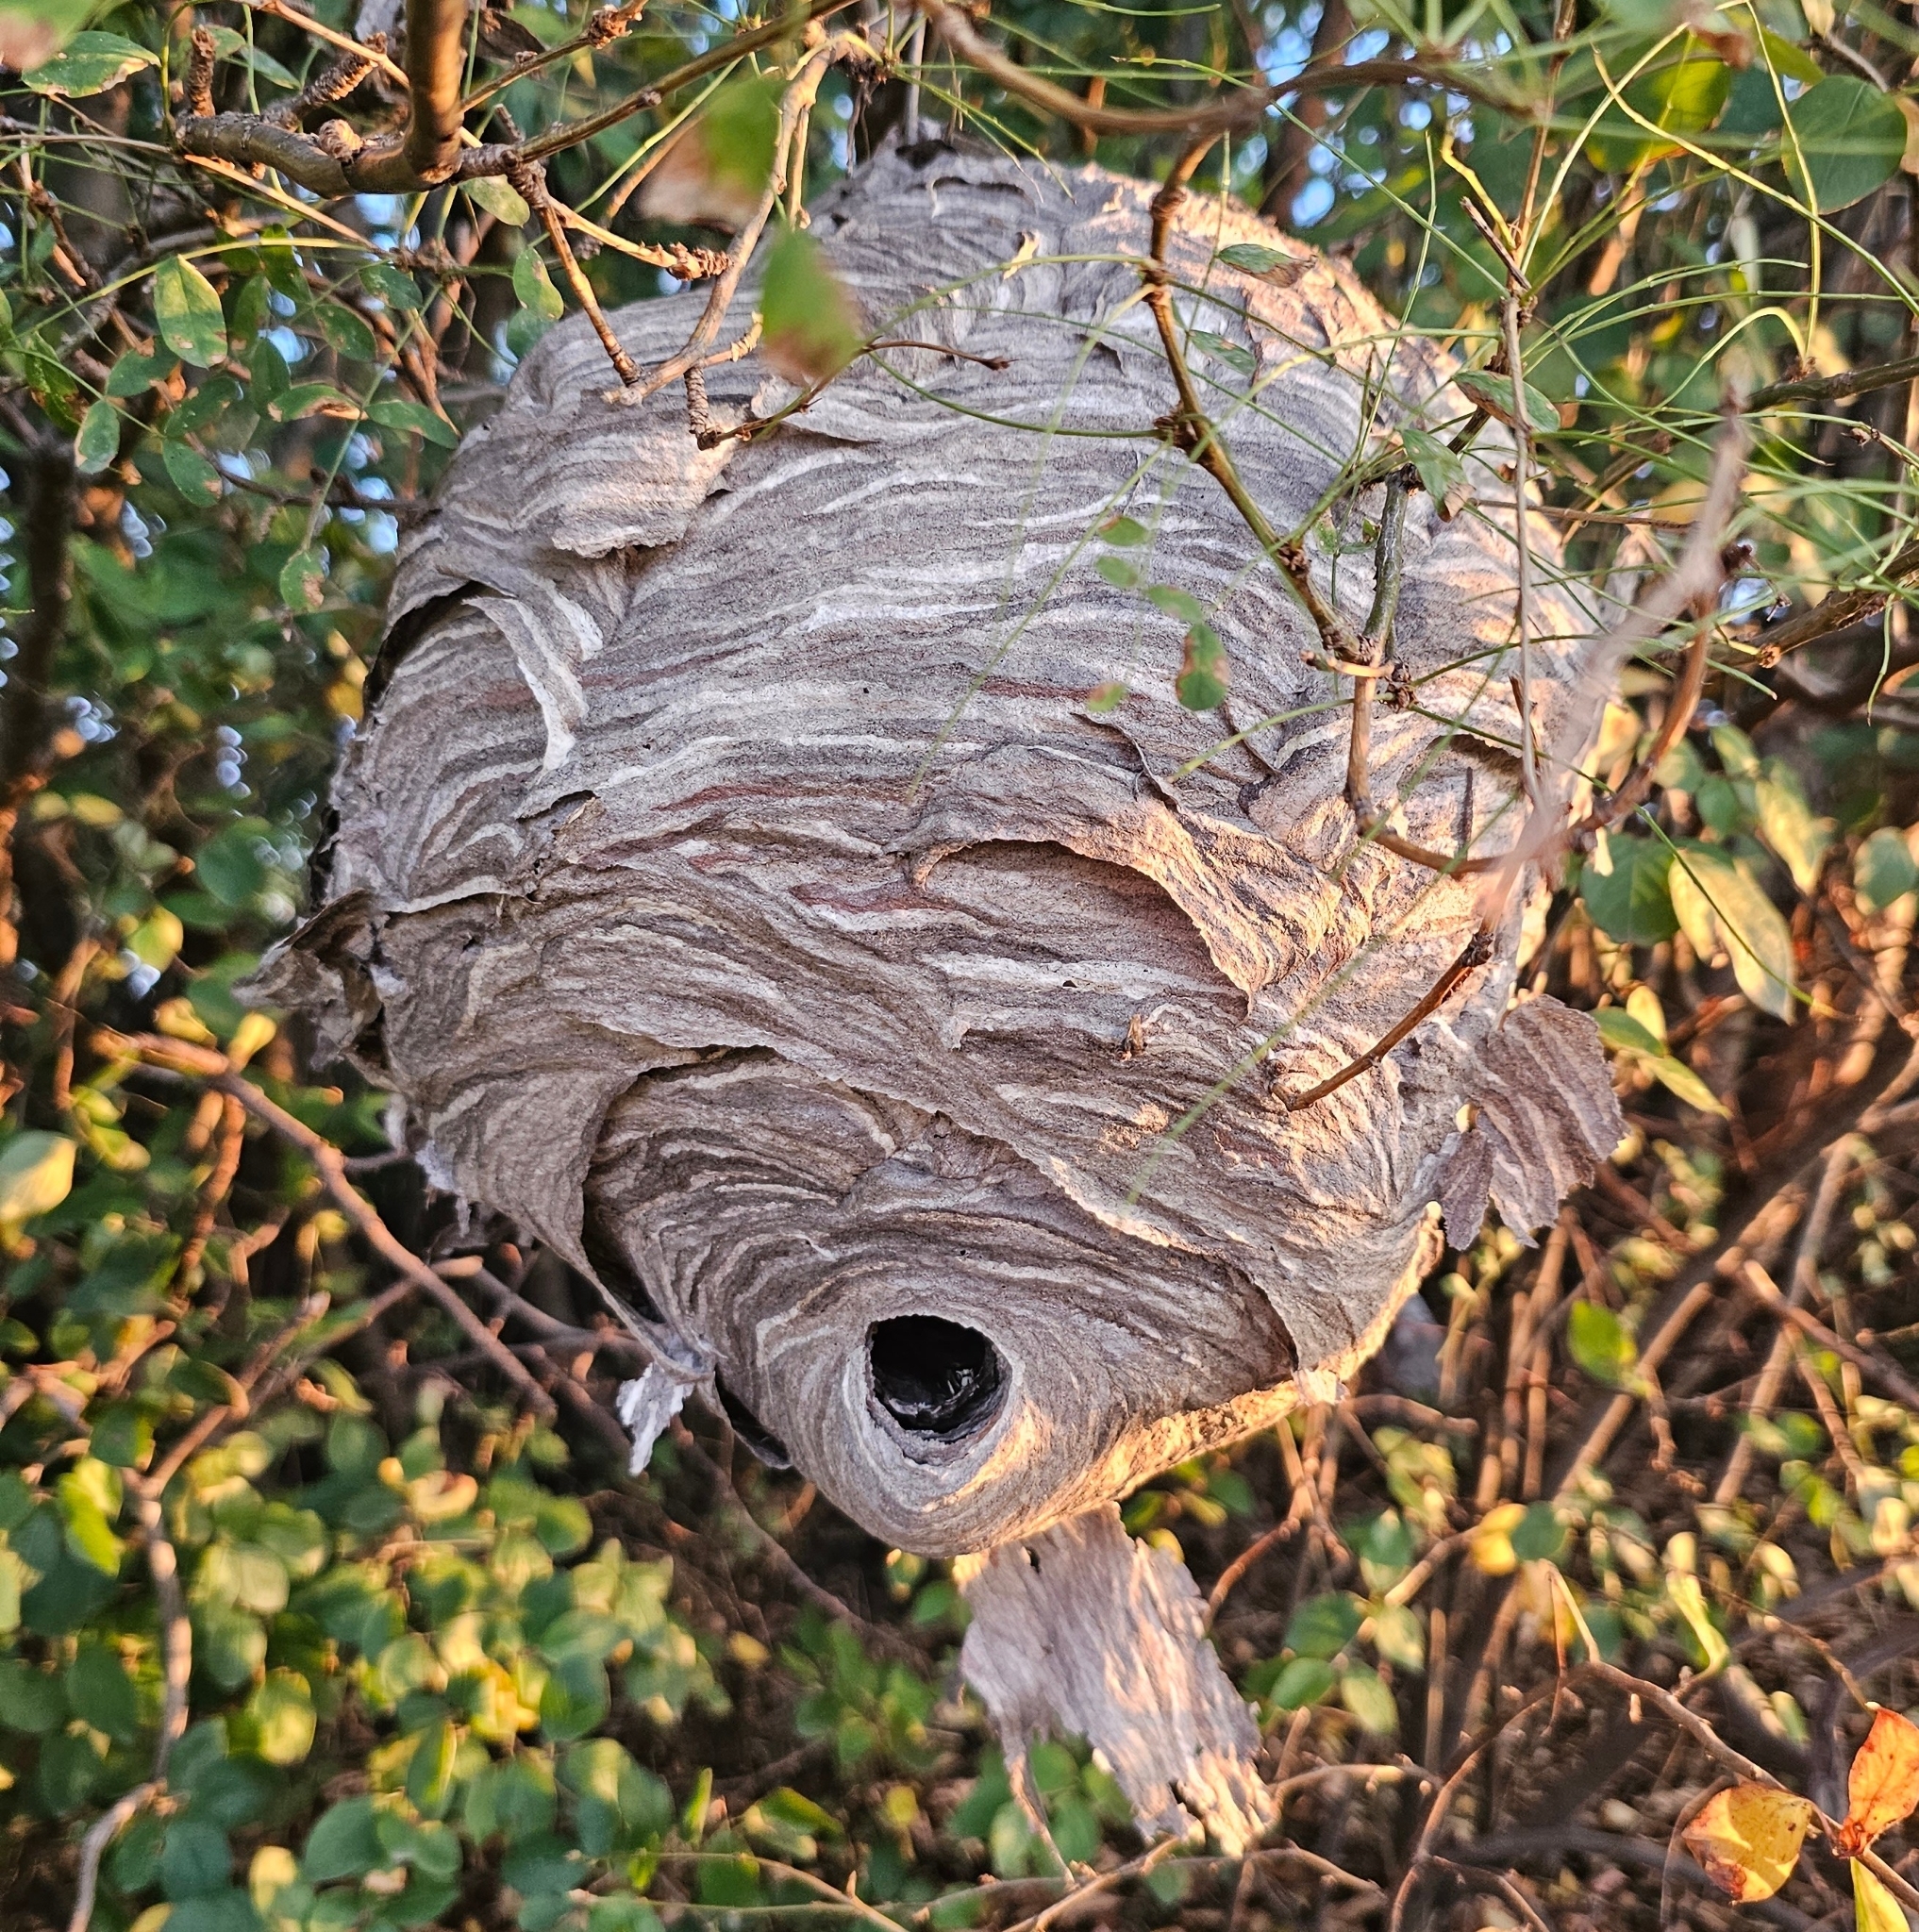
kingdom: Animalia
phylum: Arthropoda
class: Insecta
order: Hymenoptera
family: Vespidae
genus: Dolichovespula
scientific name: Dolichovespula maculata
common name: Bald-faced hornet
